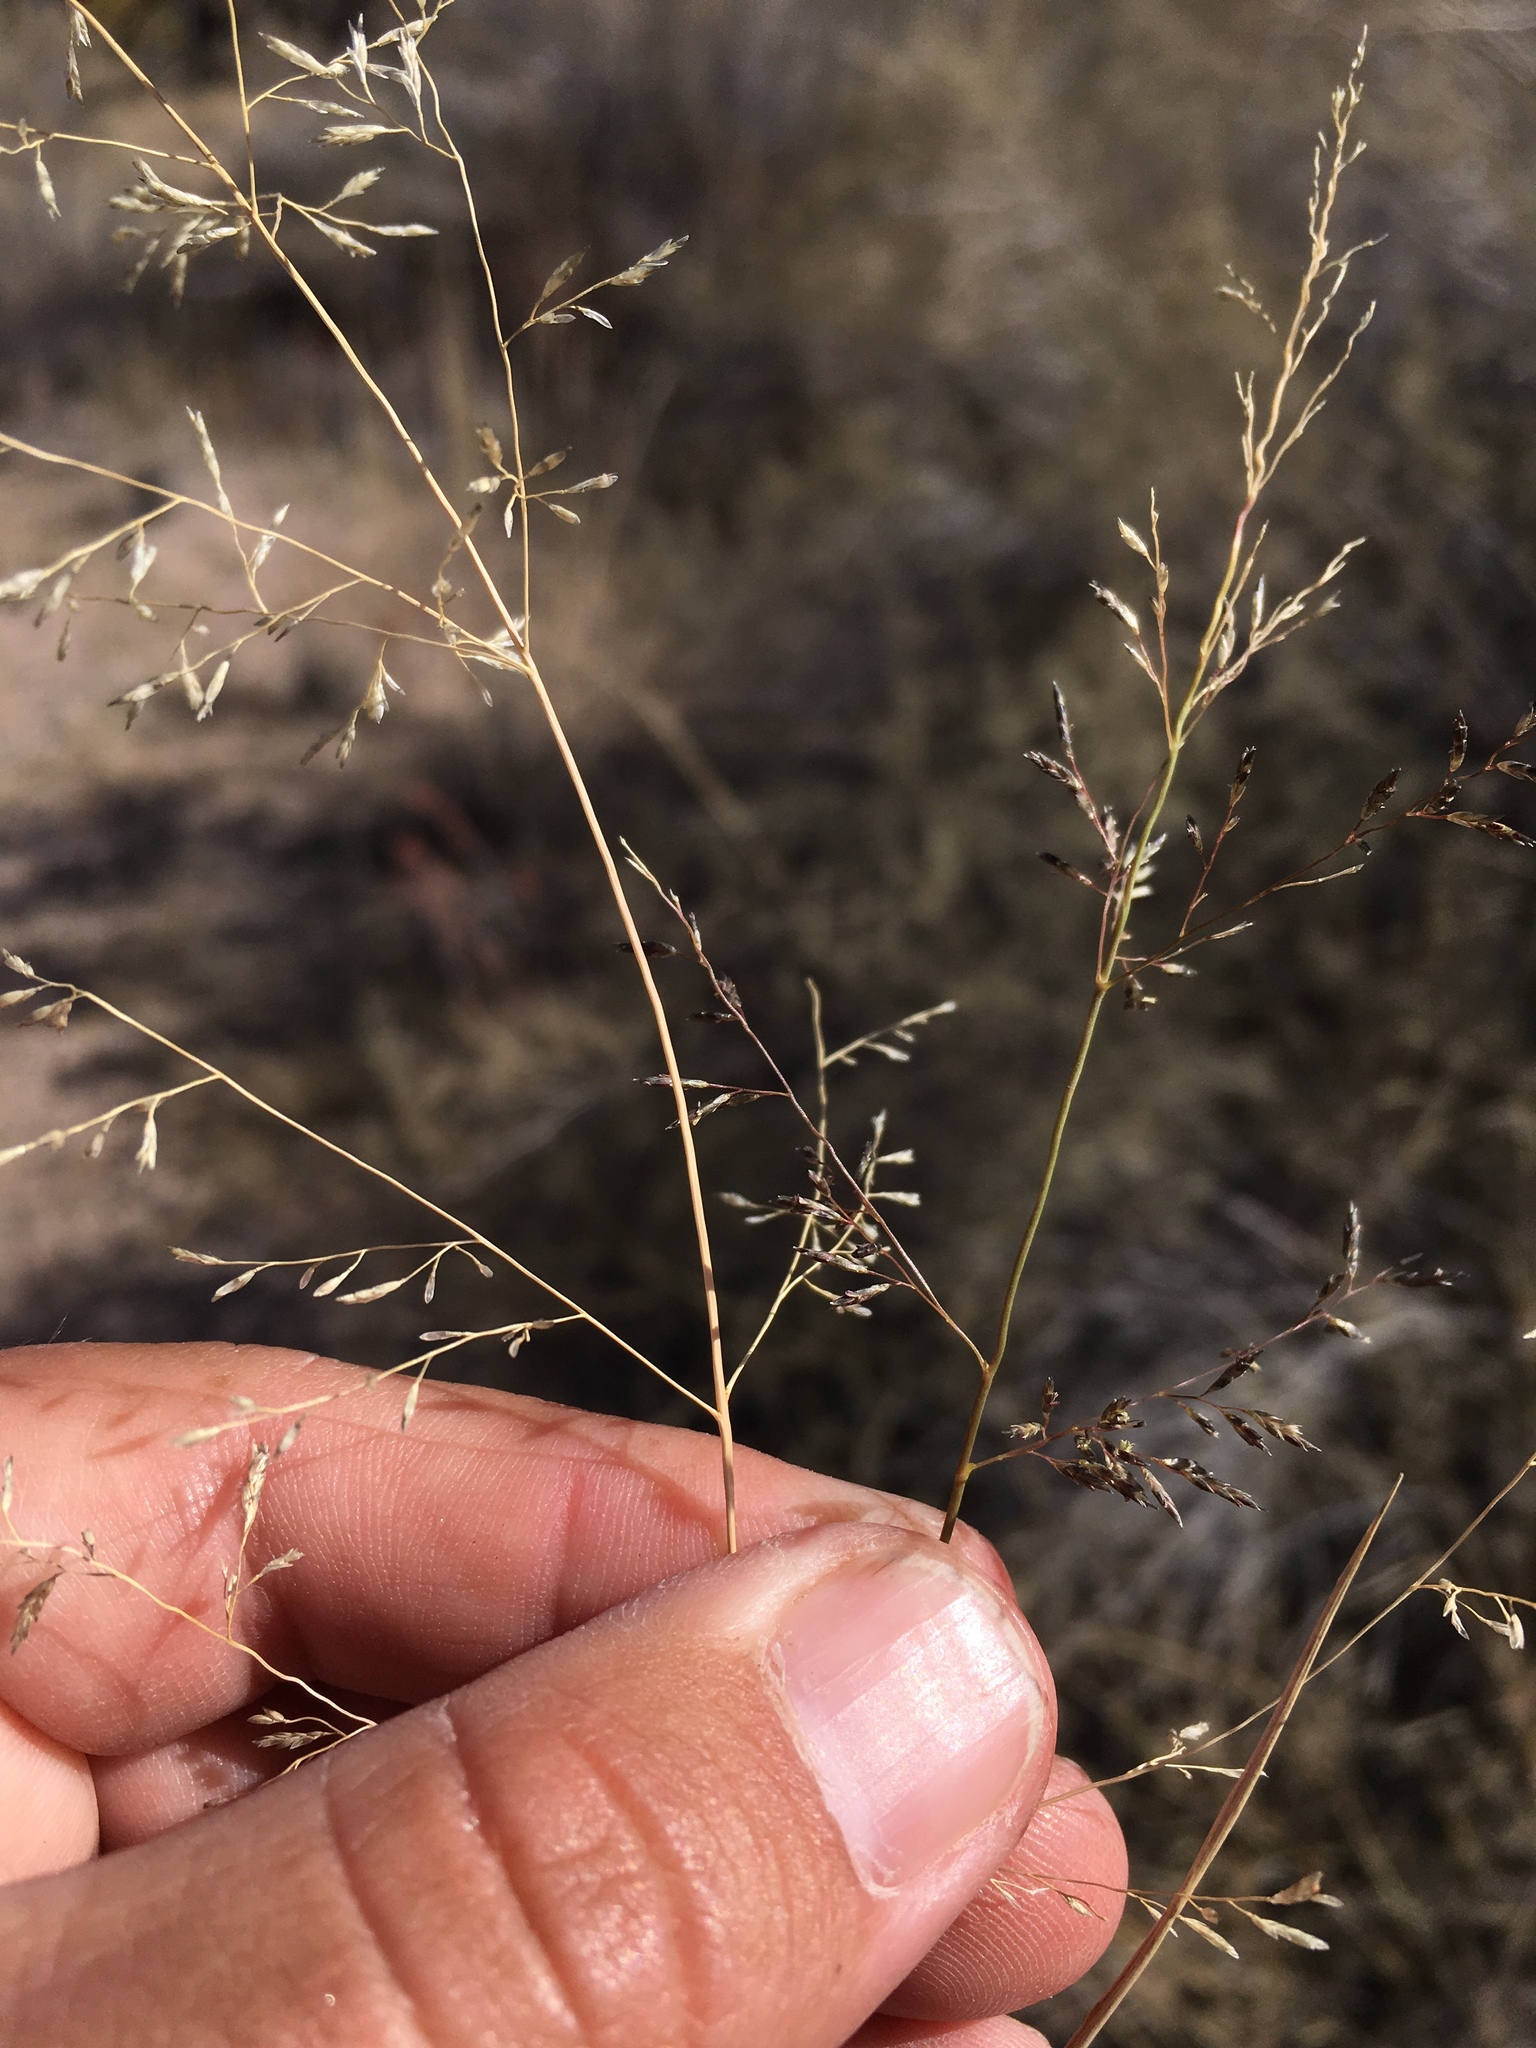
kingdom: Plantae
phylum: Tracheophyta
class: Liliopsida
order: Poales
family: Poaceae
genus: Eragrostis
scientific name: Eragrostis lehmanniana
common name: Lehmann lovegrass
